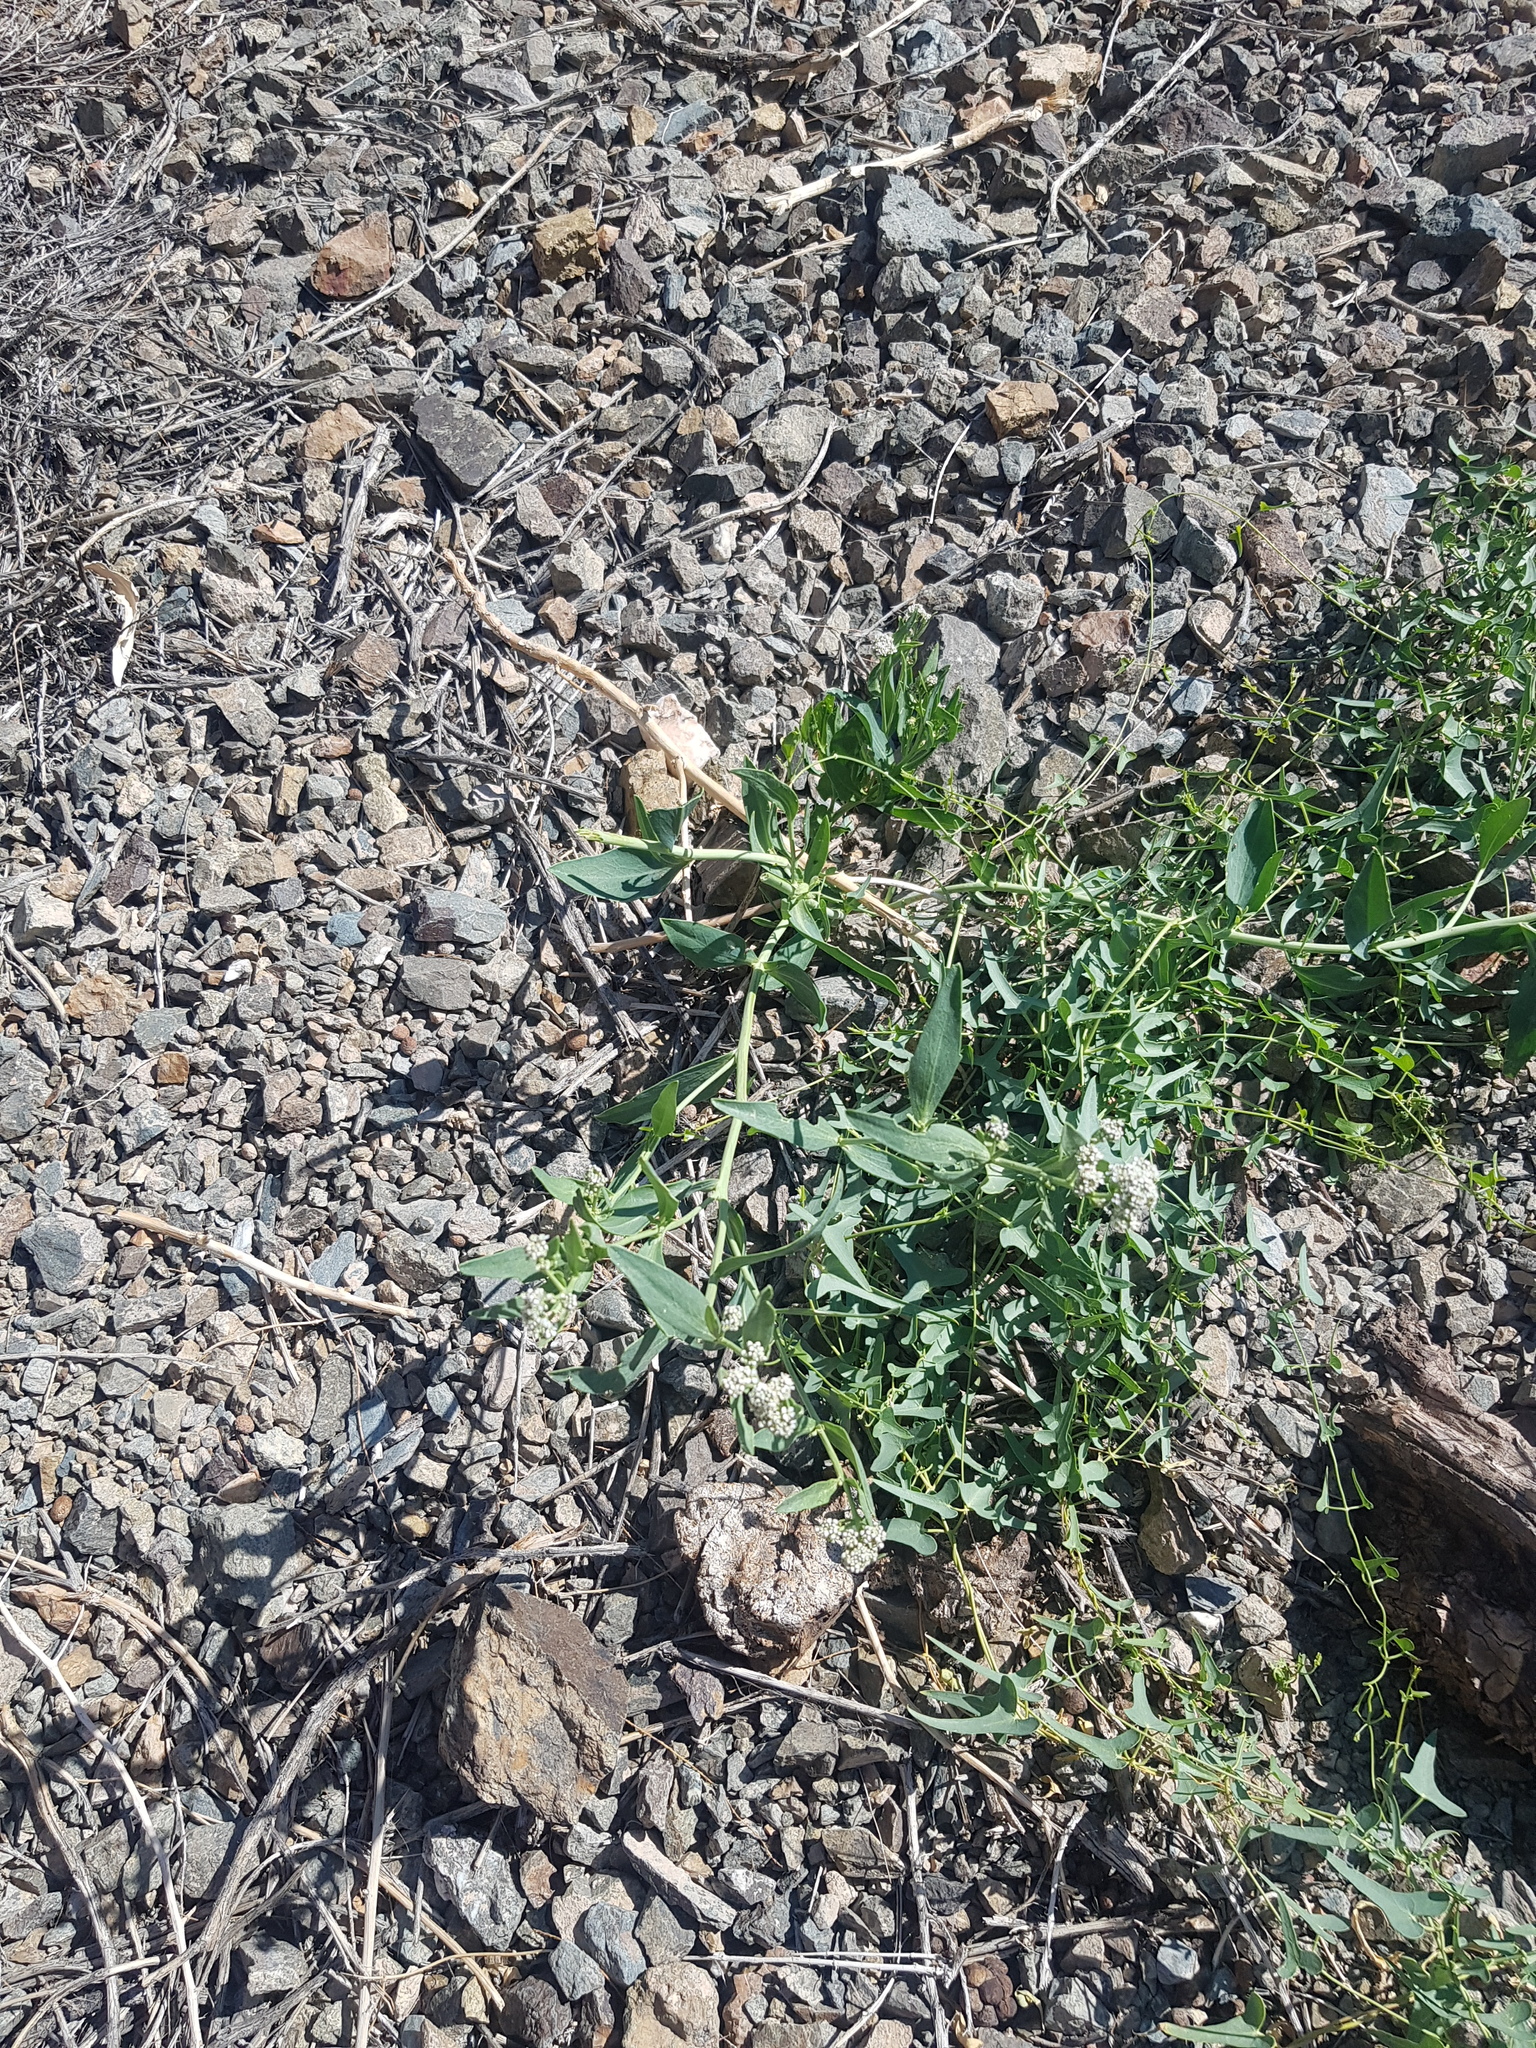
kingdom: Plantae
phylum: Tracheophyta
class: Magnoliopsida
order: Gentianales
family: Apocynaceae
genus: Cynanchum
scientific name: Cynanchum acutum
